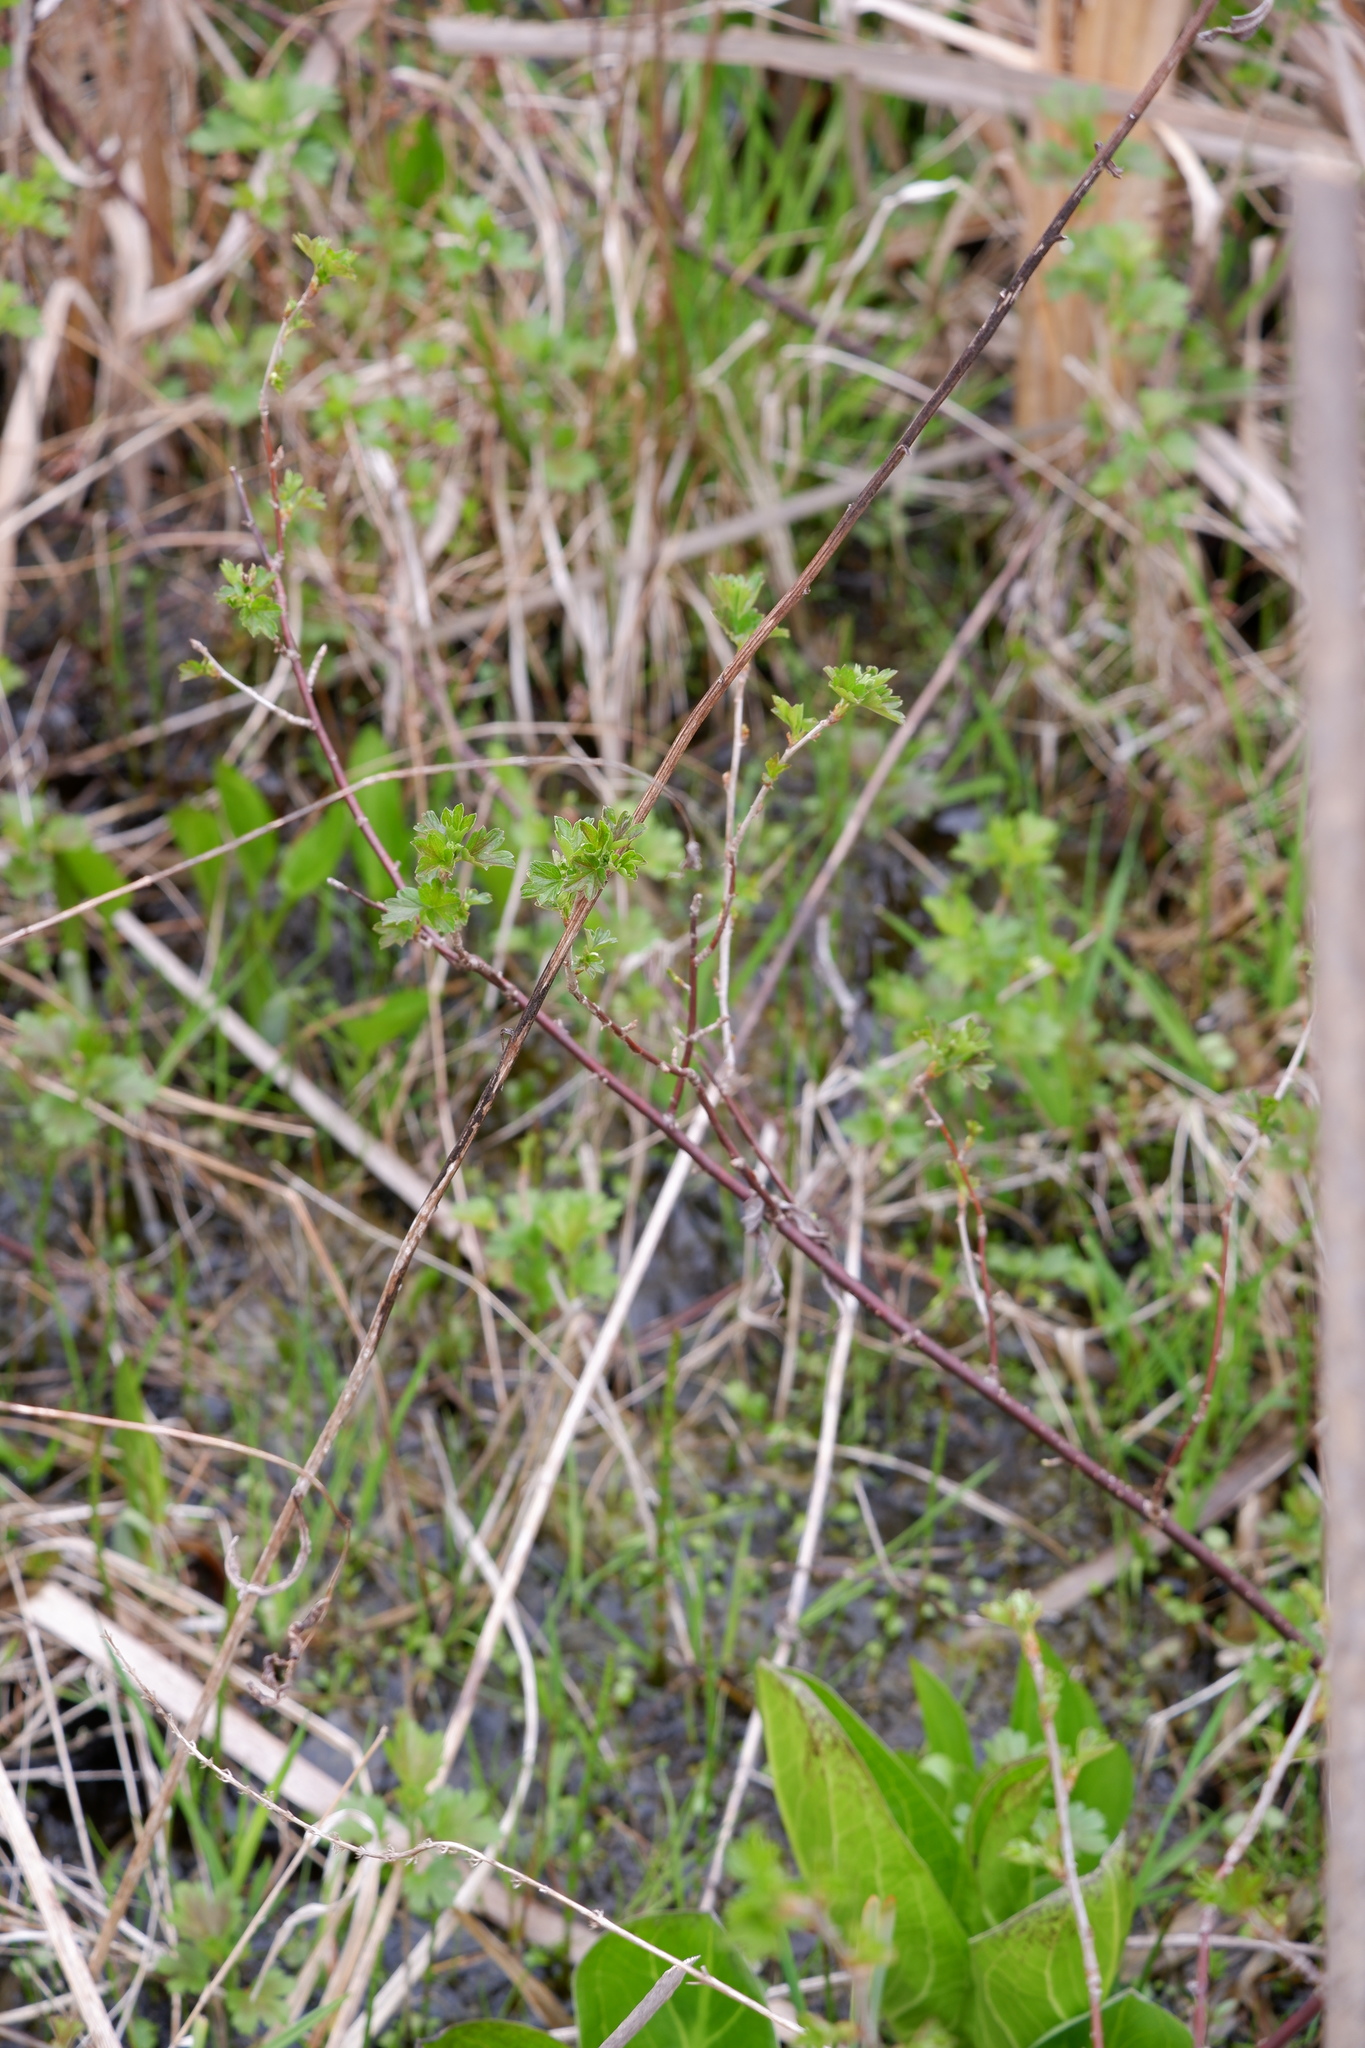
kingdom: Plantae
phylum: Tracheophyta
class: Magnoliopsida
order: Saxifragales
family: Grossulariaceae
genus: Ribes
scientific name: Ribes hirtellum
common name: Hairy gooseberry
